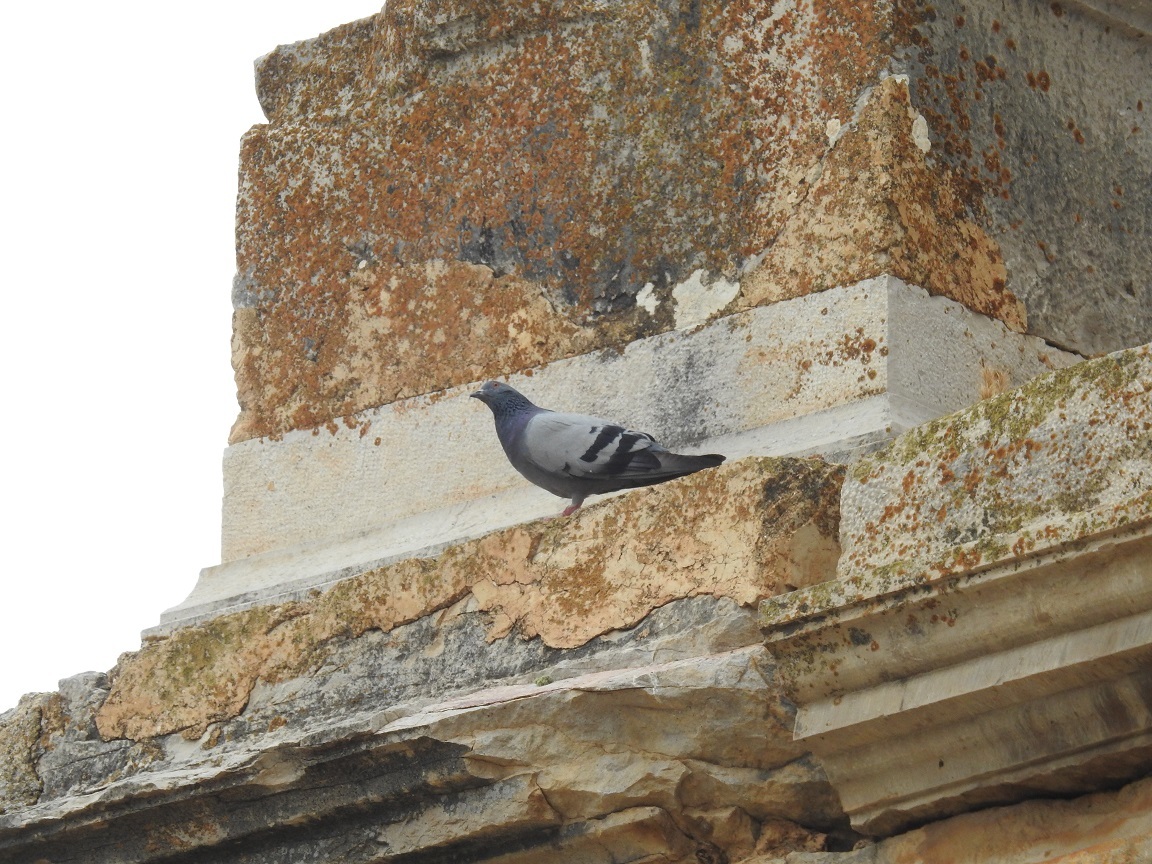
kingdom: Animalia
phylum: Chordata
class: Aves
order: Columbiformes
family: Columbidae
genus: Columba
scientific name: Columba livia
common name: Rock pigeon
